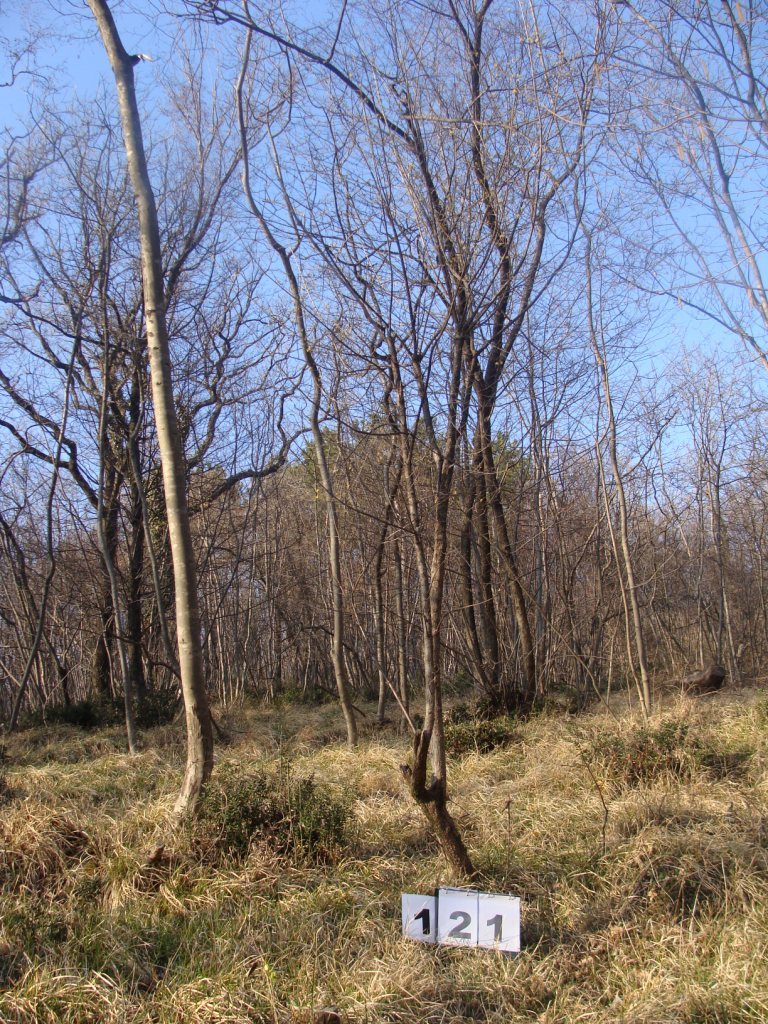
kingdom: Plantae
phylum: Tracheophyta
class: Magnoliopsida
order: Cornales
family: Cornaceae
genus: Cornus
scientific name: Cornus mas
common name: Cornelian-cherry
